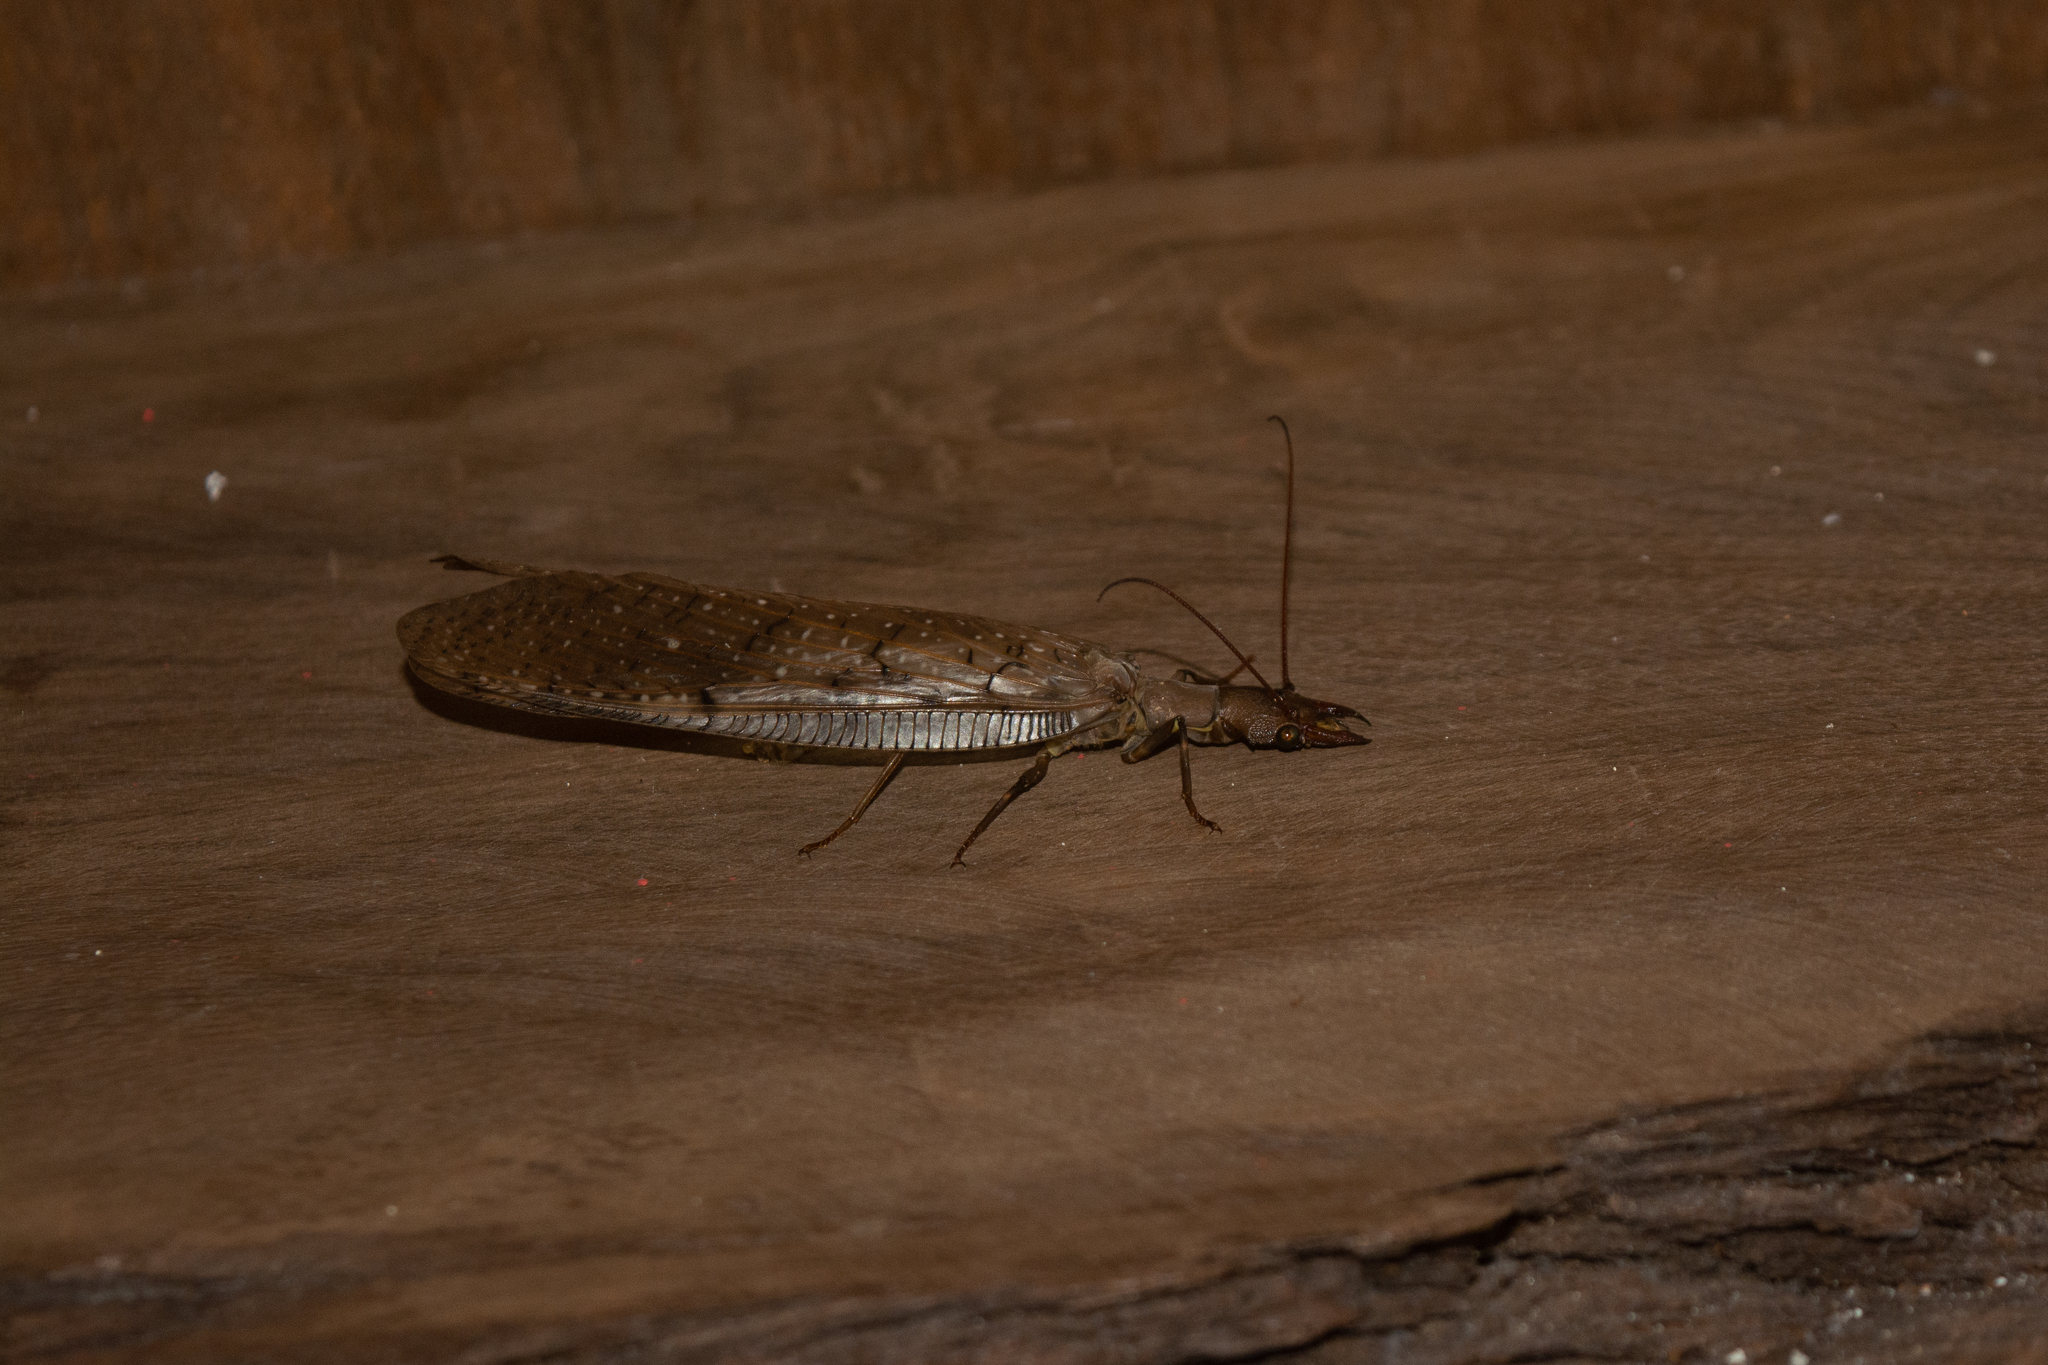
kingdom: Animalia
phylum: Arthropoda
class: Insecta
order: Megaloptera
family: Corydalidae
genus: Corydalus
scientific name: Corydalus australis
